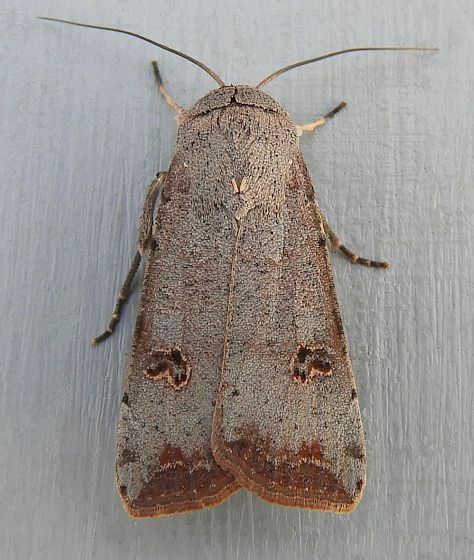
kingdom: Animalia
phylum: Arthropoda
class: Insecta
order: Lepidoptera
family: Noctuidae
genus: Anicla
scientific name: Anicla infecta
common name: Green cutworm
